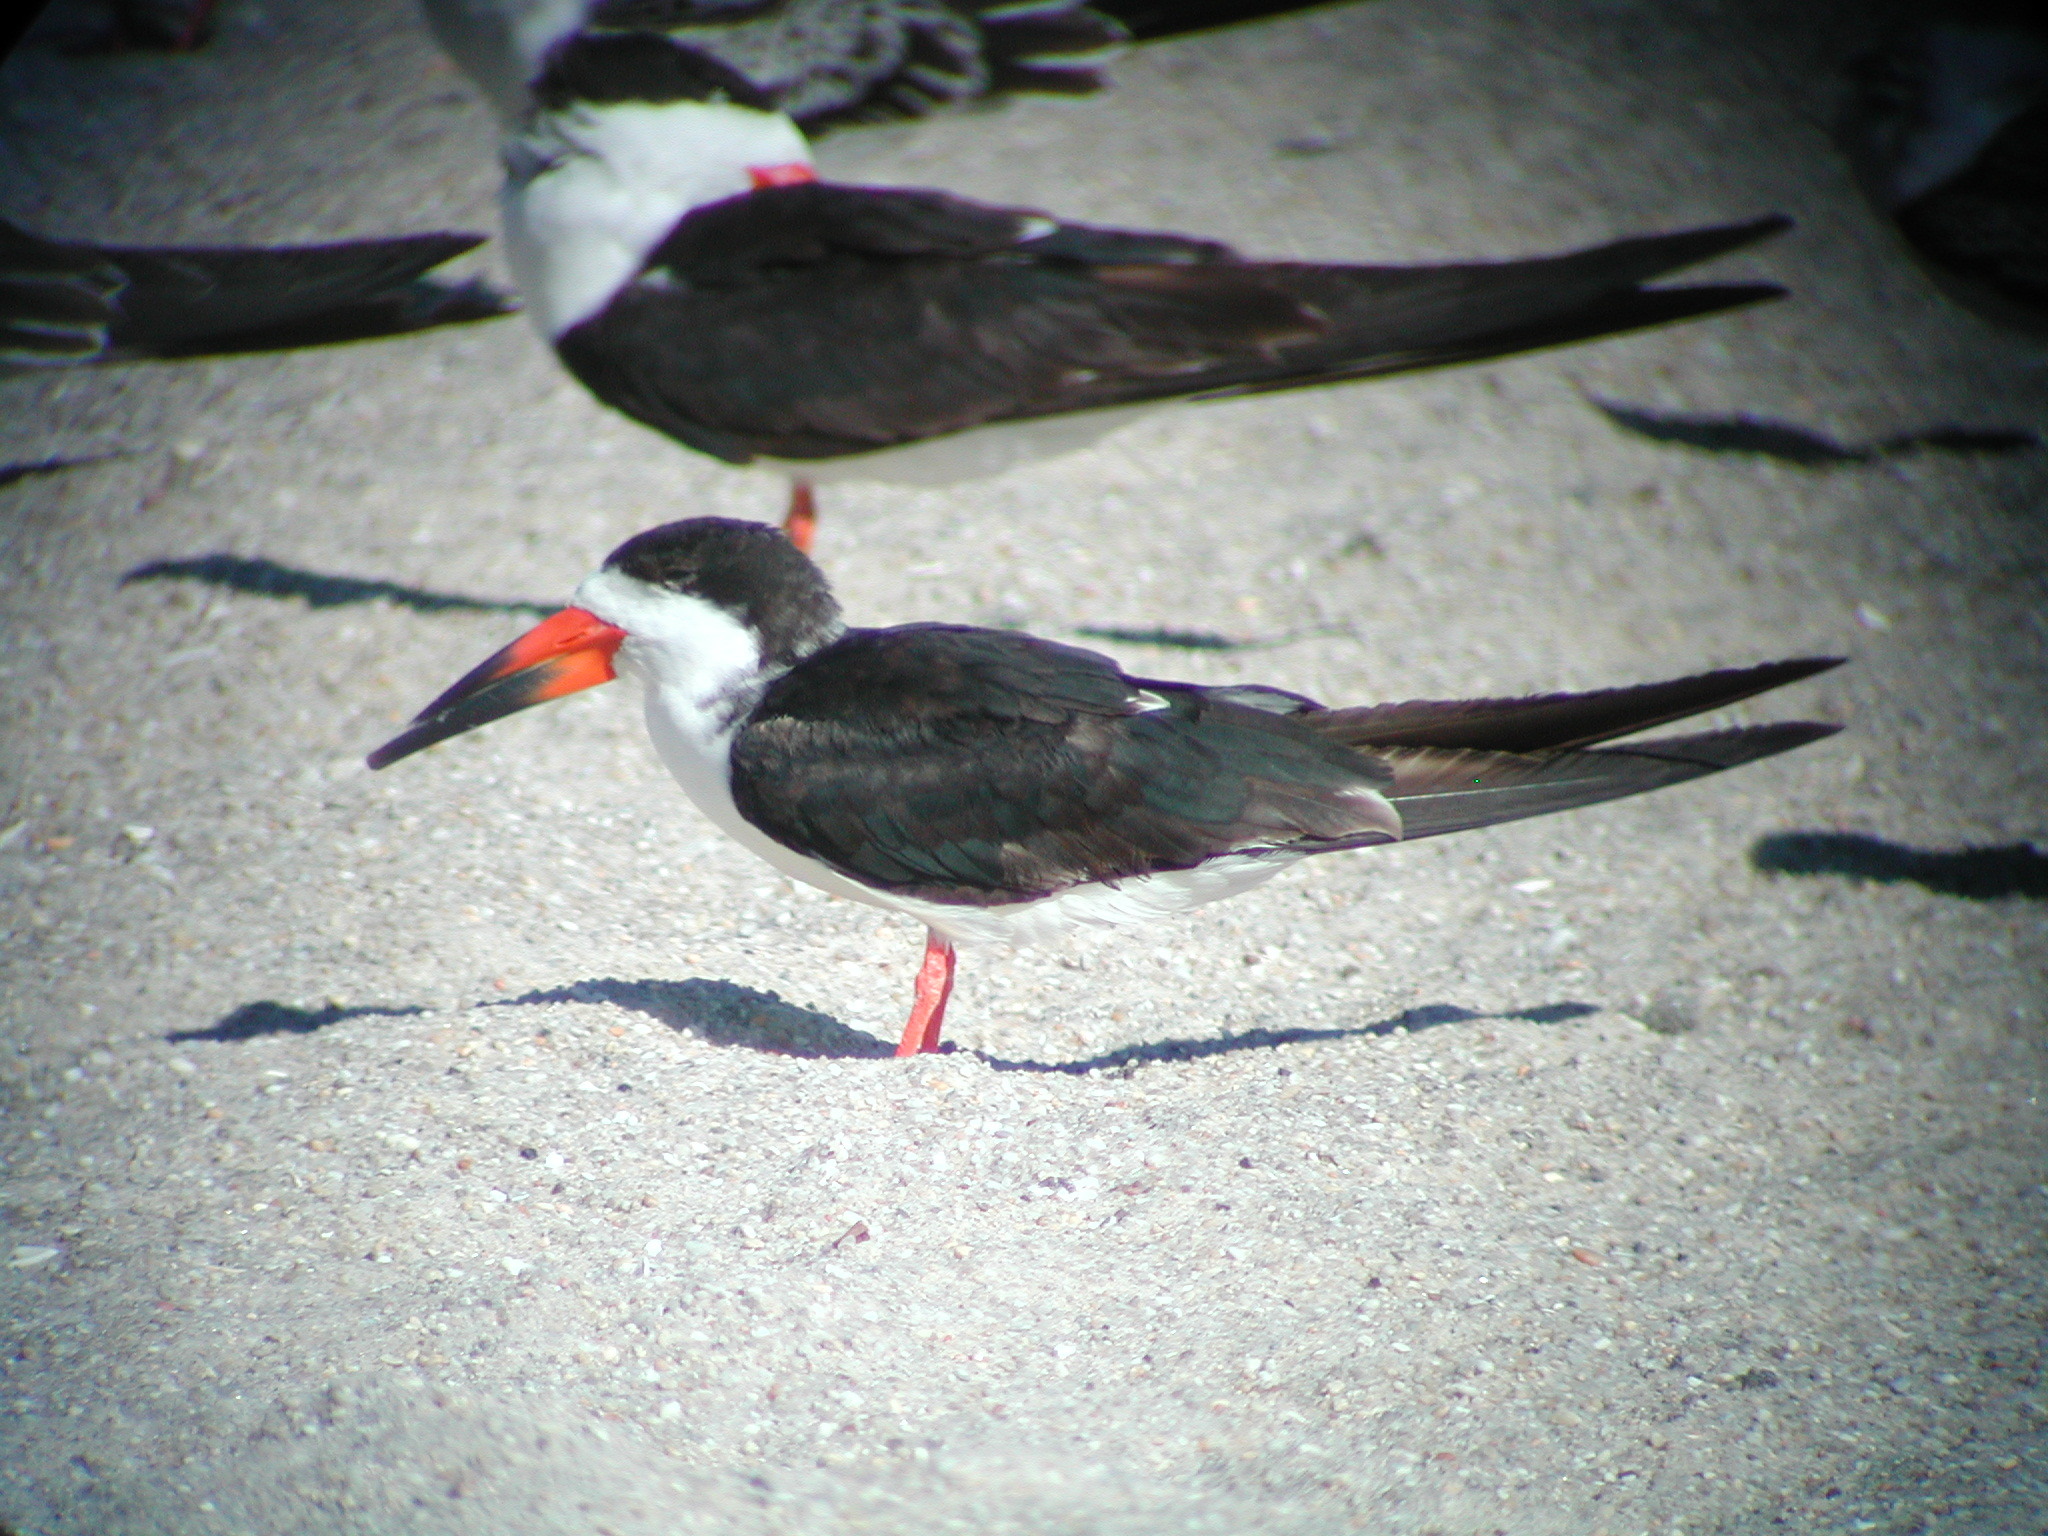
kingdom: Animalia
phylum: Chordata
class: Aves
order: Charadriiformes
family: Laridae
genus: Rynchops
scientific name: Rynchops niger
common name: Black skimmer
